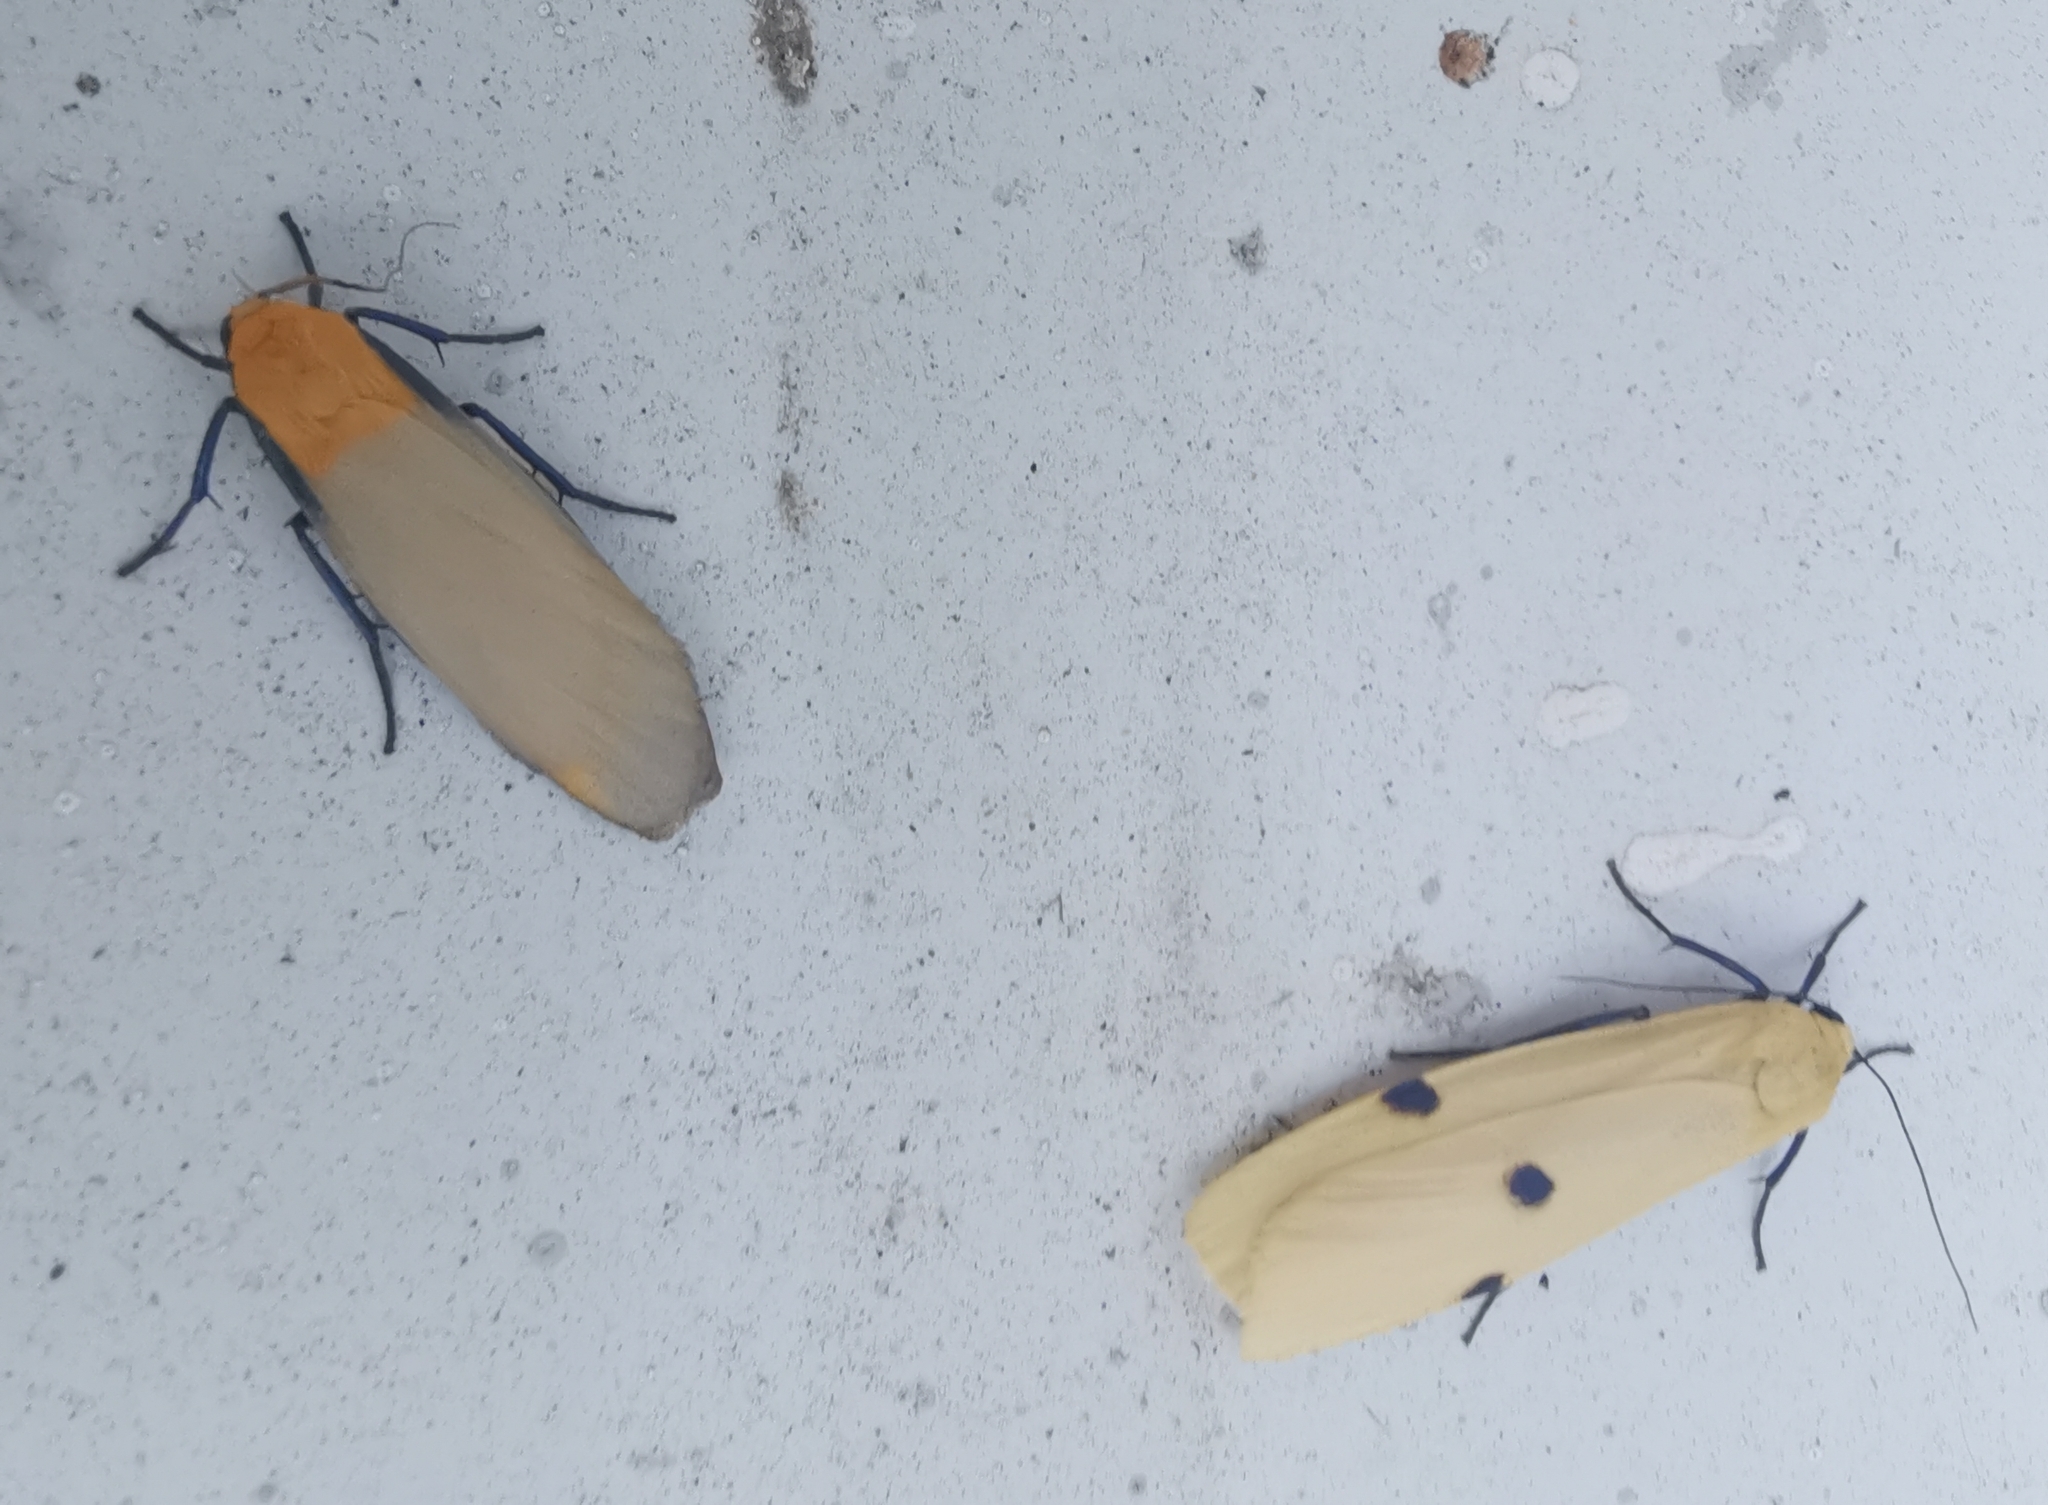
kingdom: Animalia
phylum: Arthropoda
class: Insecta
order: Lepidoptera
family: Erebidae
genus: Lithosia
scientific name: Lithosia quadra
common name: Four-spotted footman
